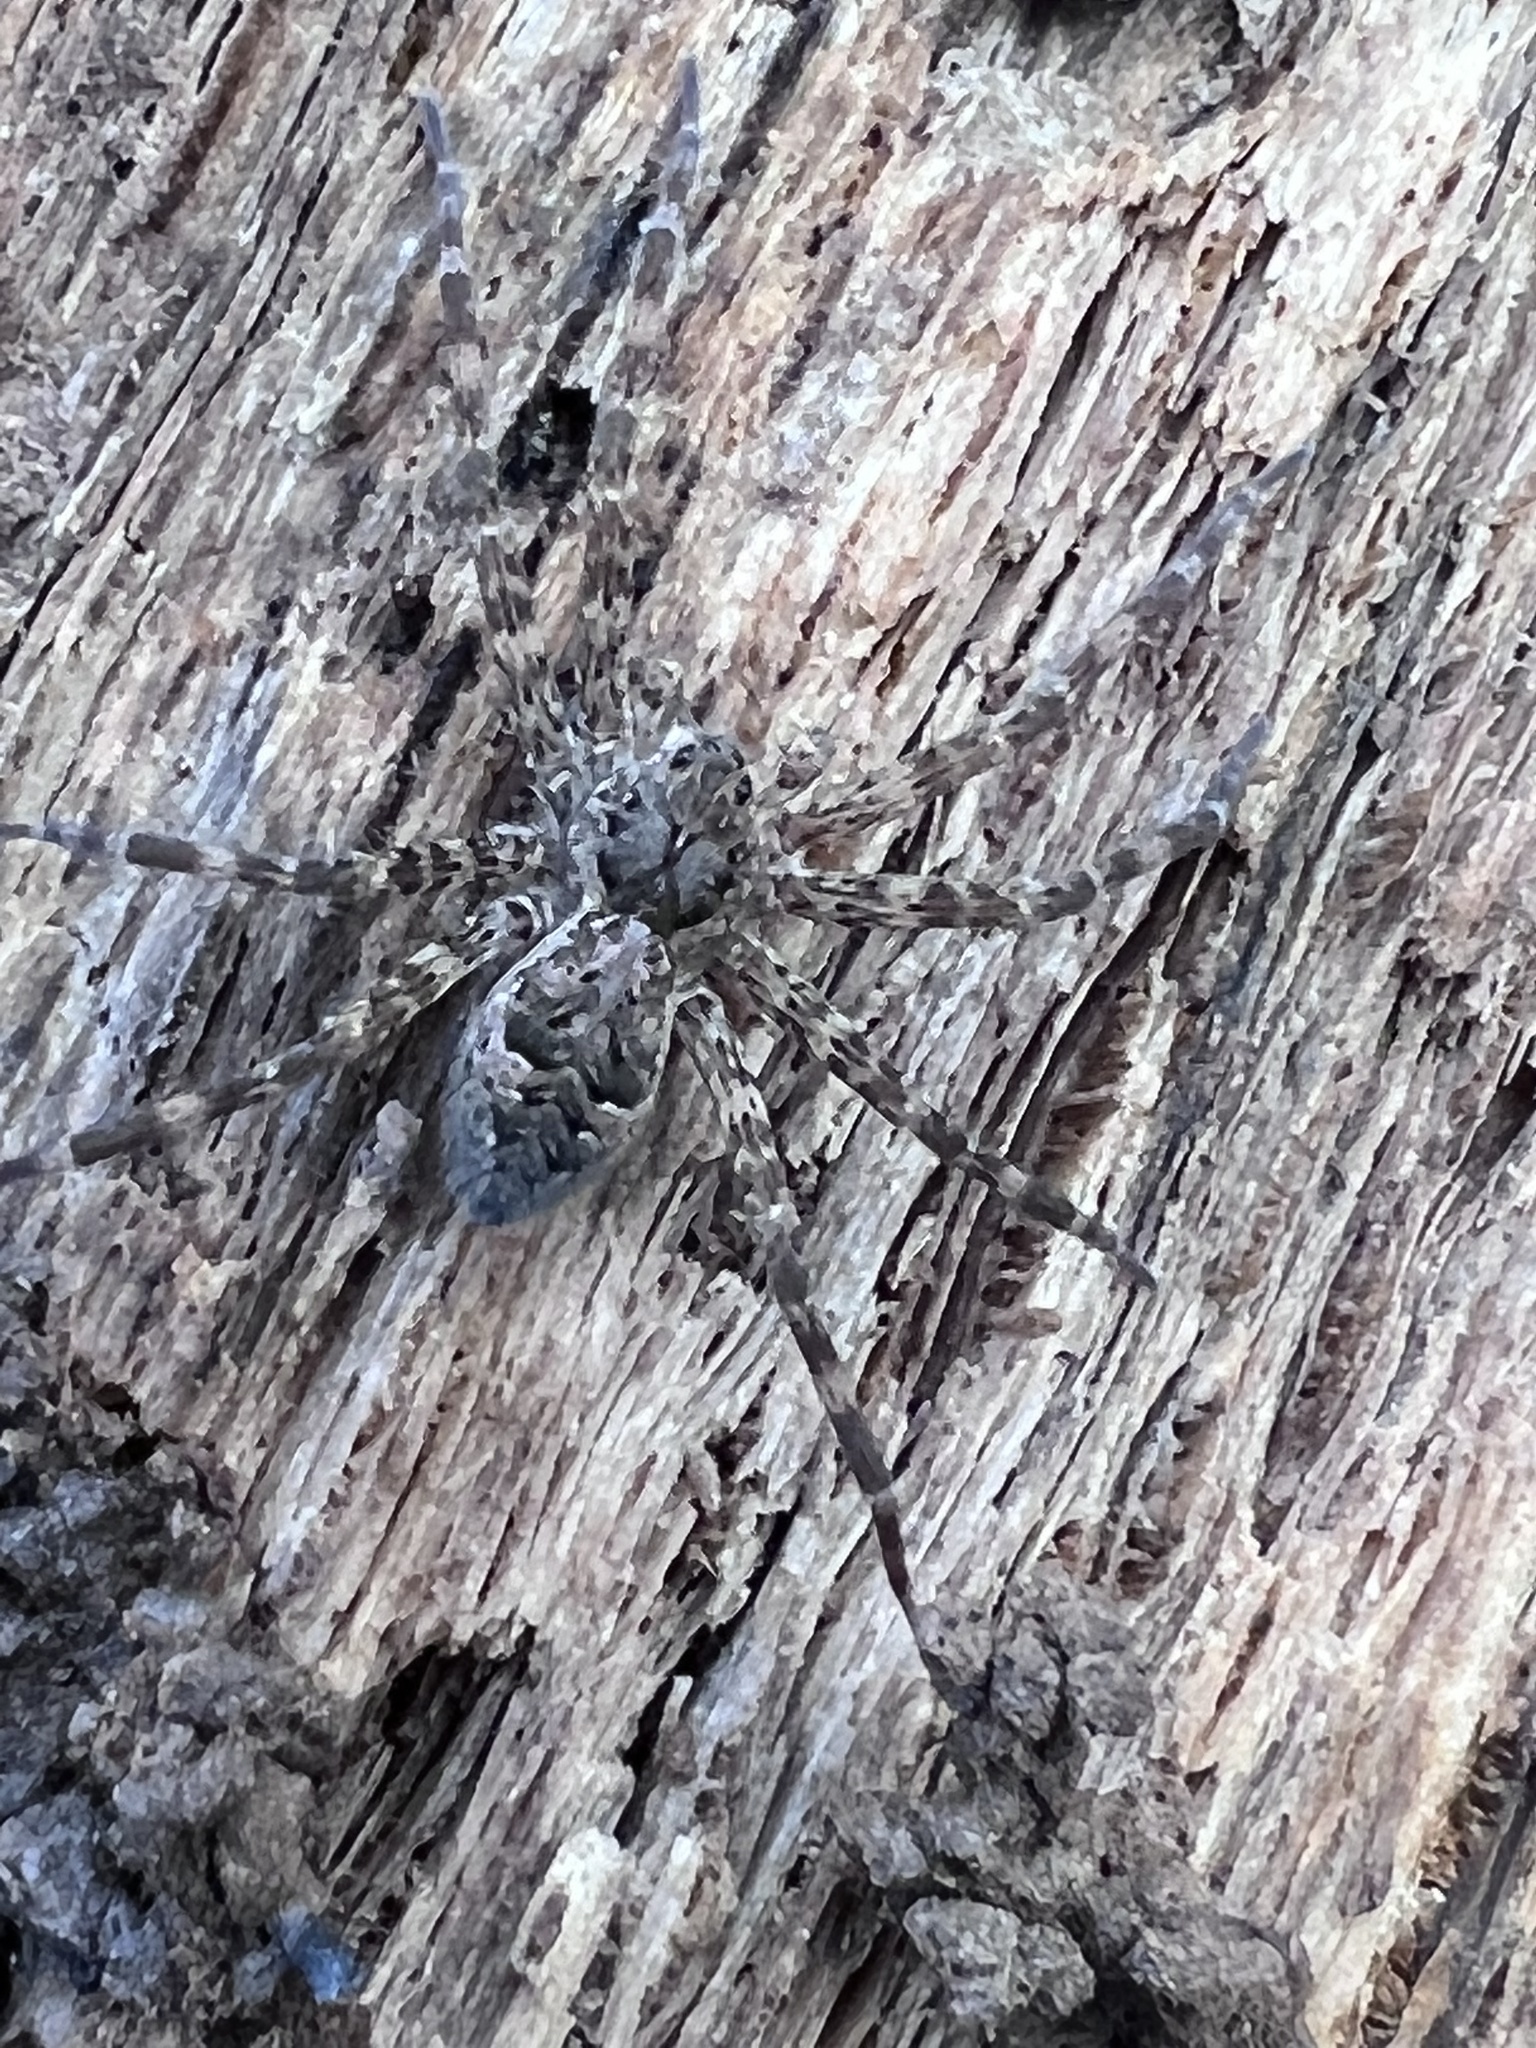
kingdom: Animalia
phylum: Arthropoda
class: Arachnida
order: Araneae
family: Pisauridae
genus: Dolomedes
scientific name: Dolomedes tenebrosus
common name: Dark fishing spider
